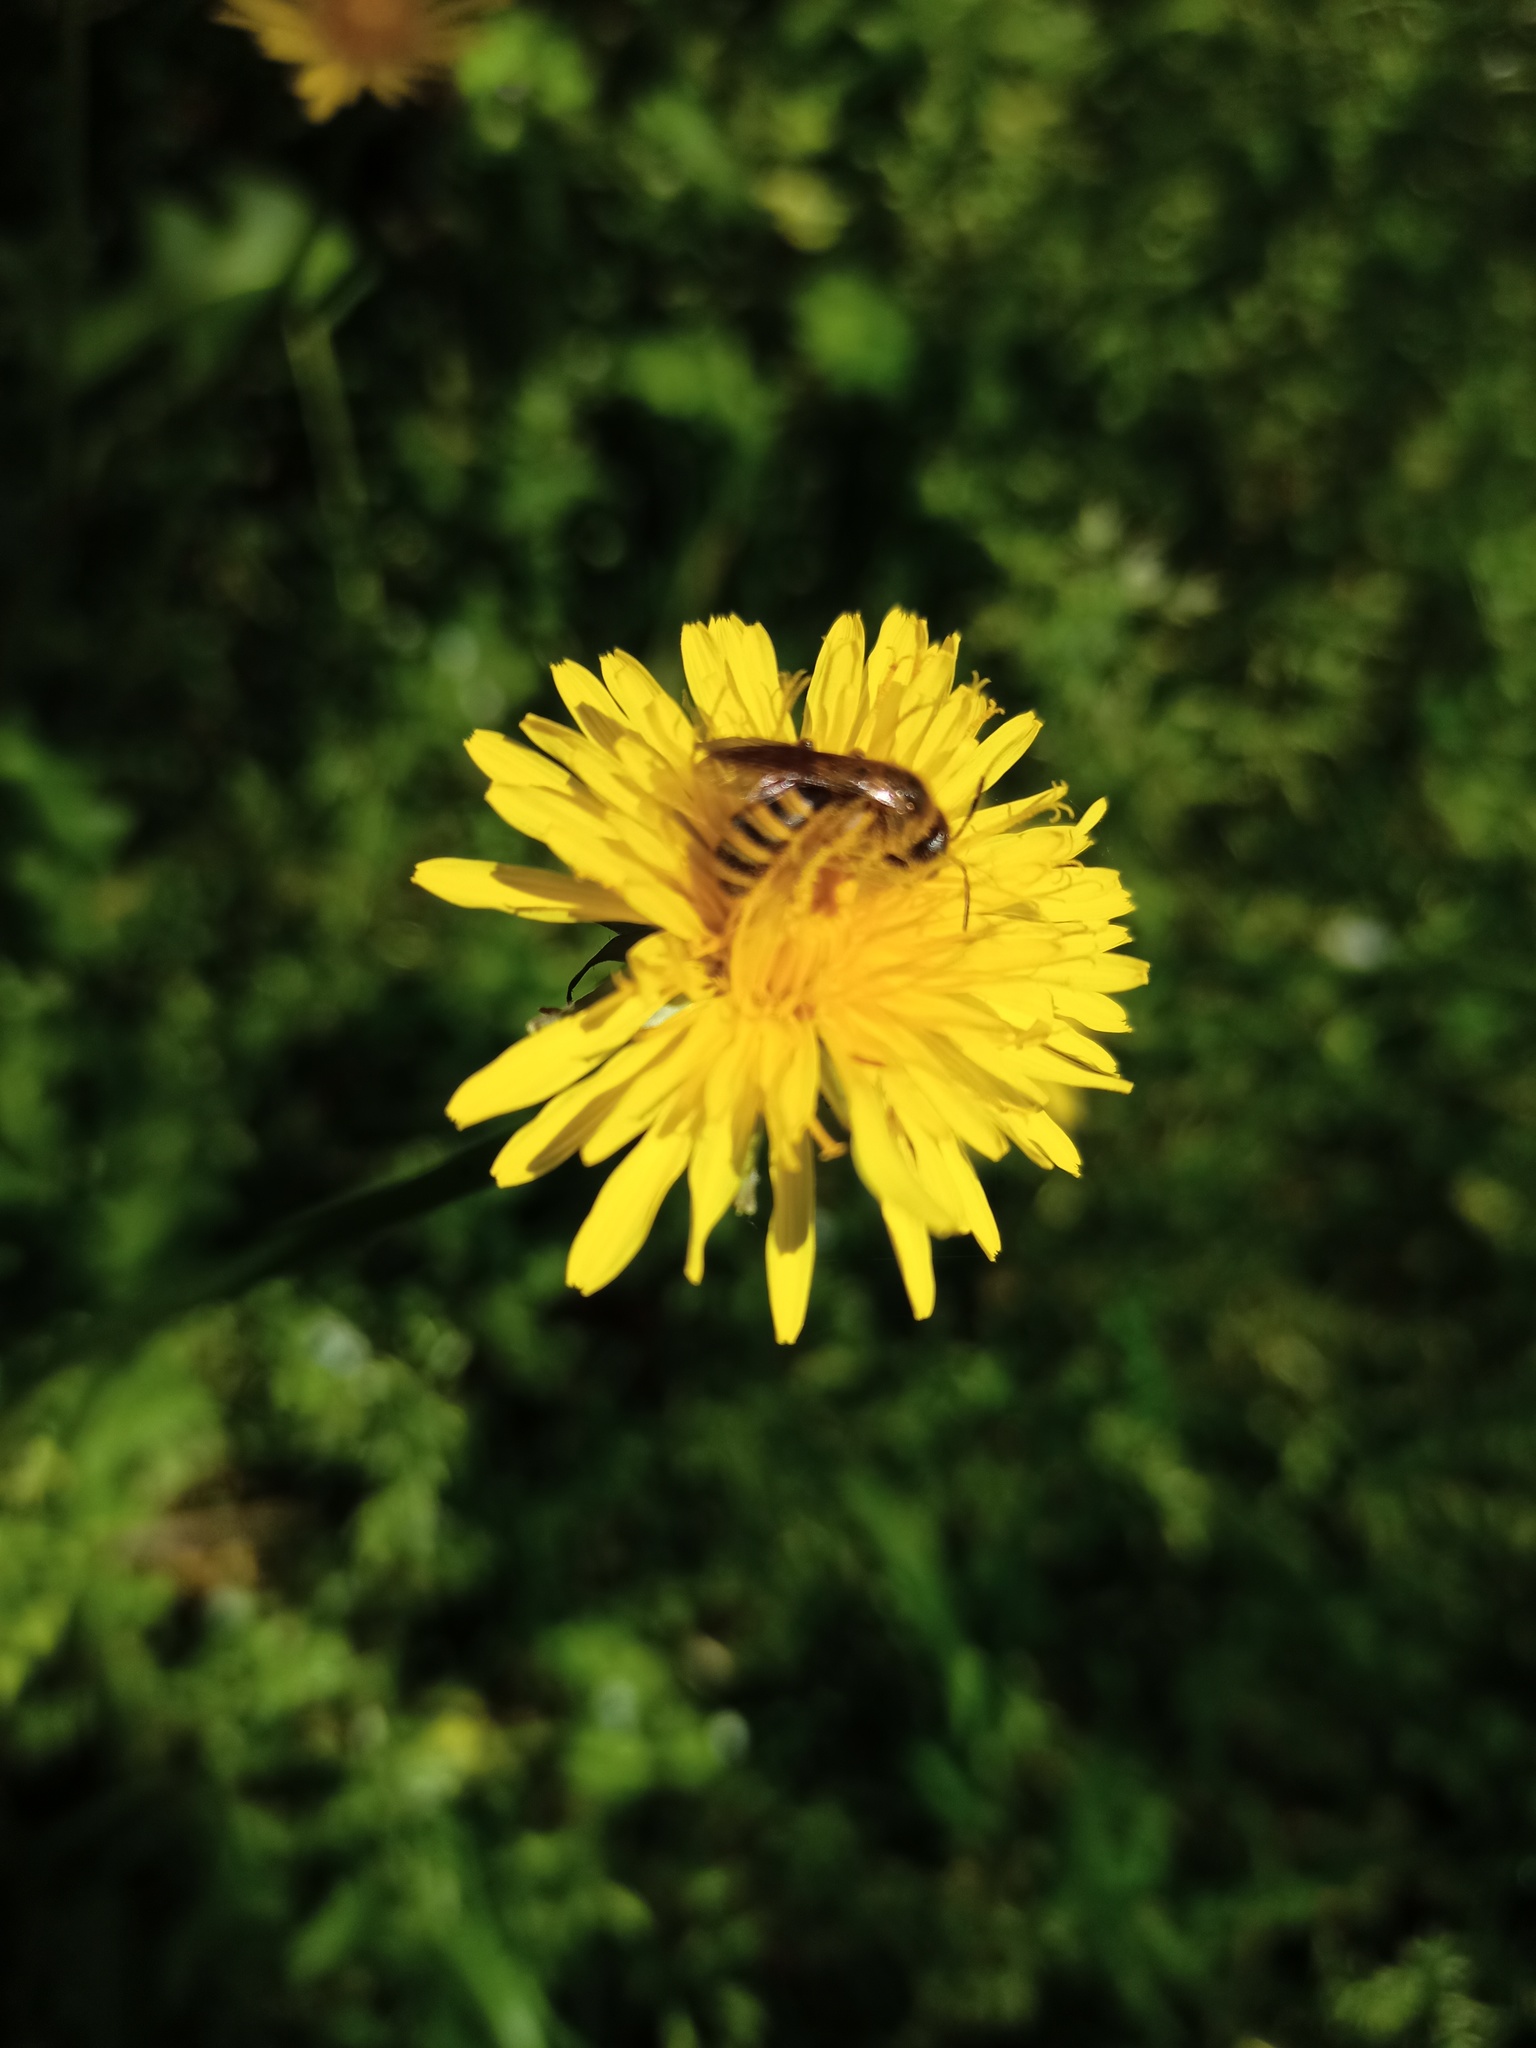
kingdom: Animalia
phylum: Arthropoda
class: Insecta
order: Hymenoptera
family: Halictidae
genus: Halictus
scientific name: Halictus scabiosae
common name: Great banded furrow bee
